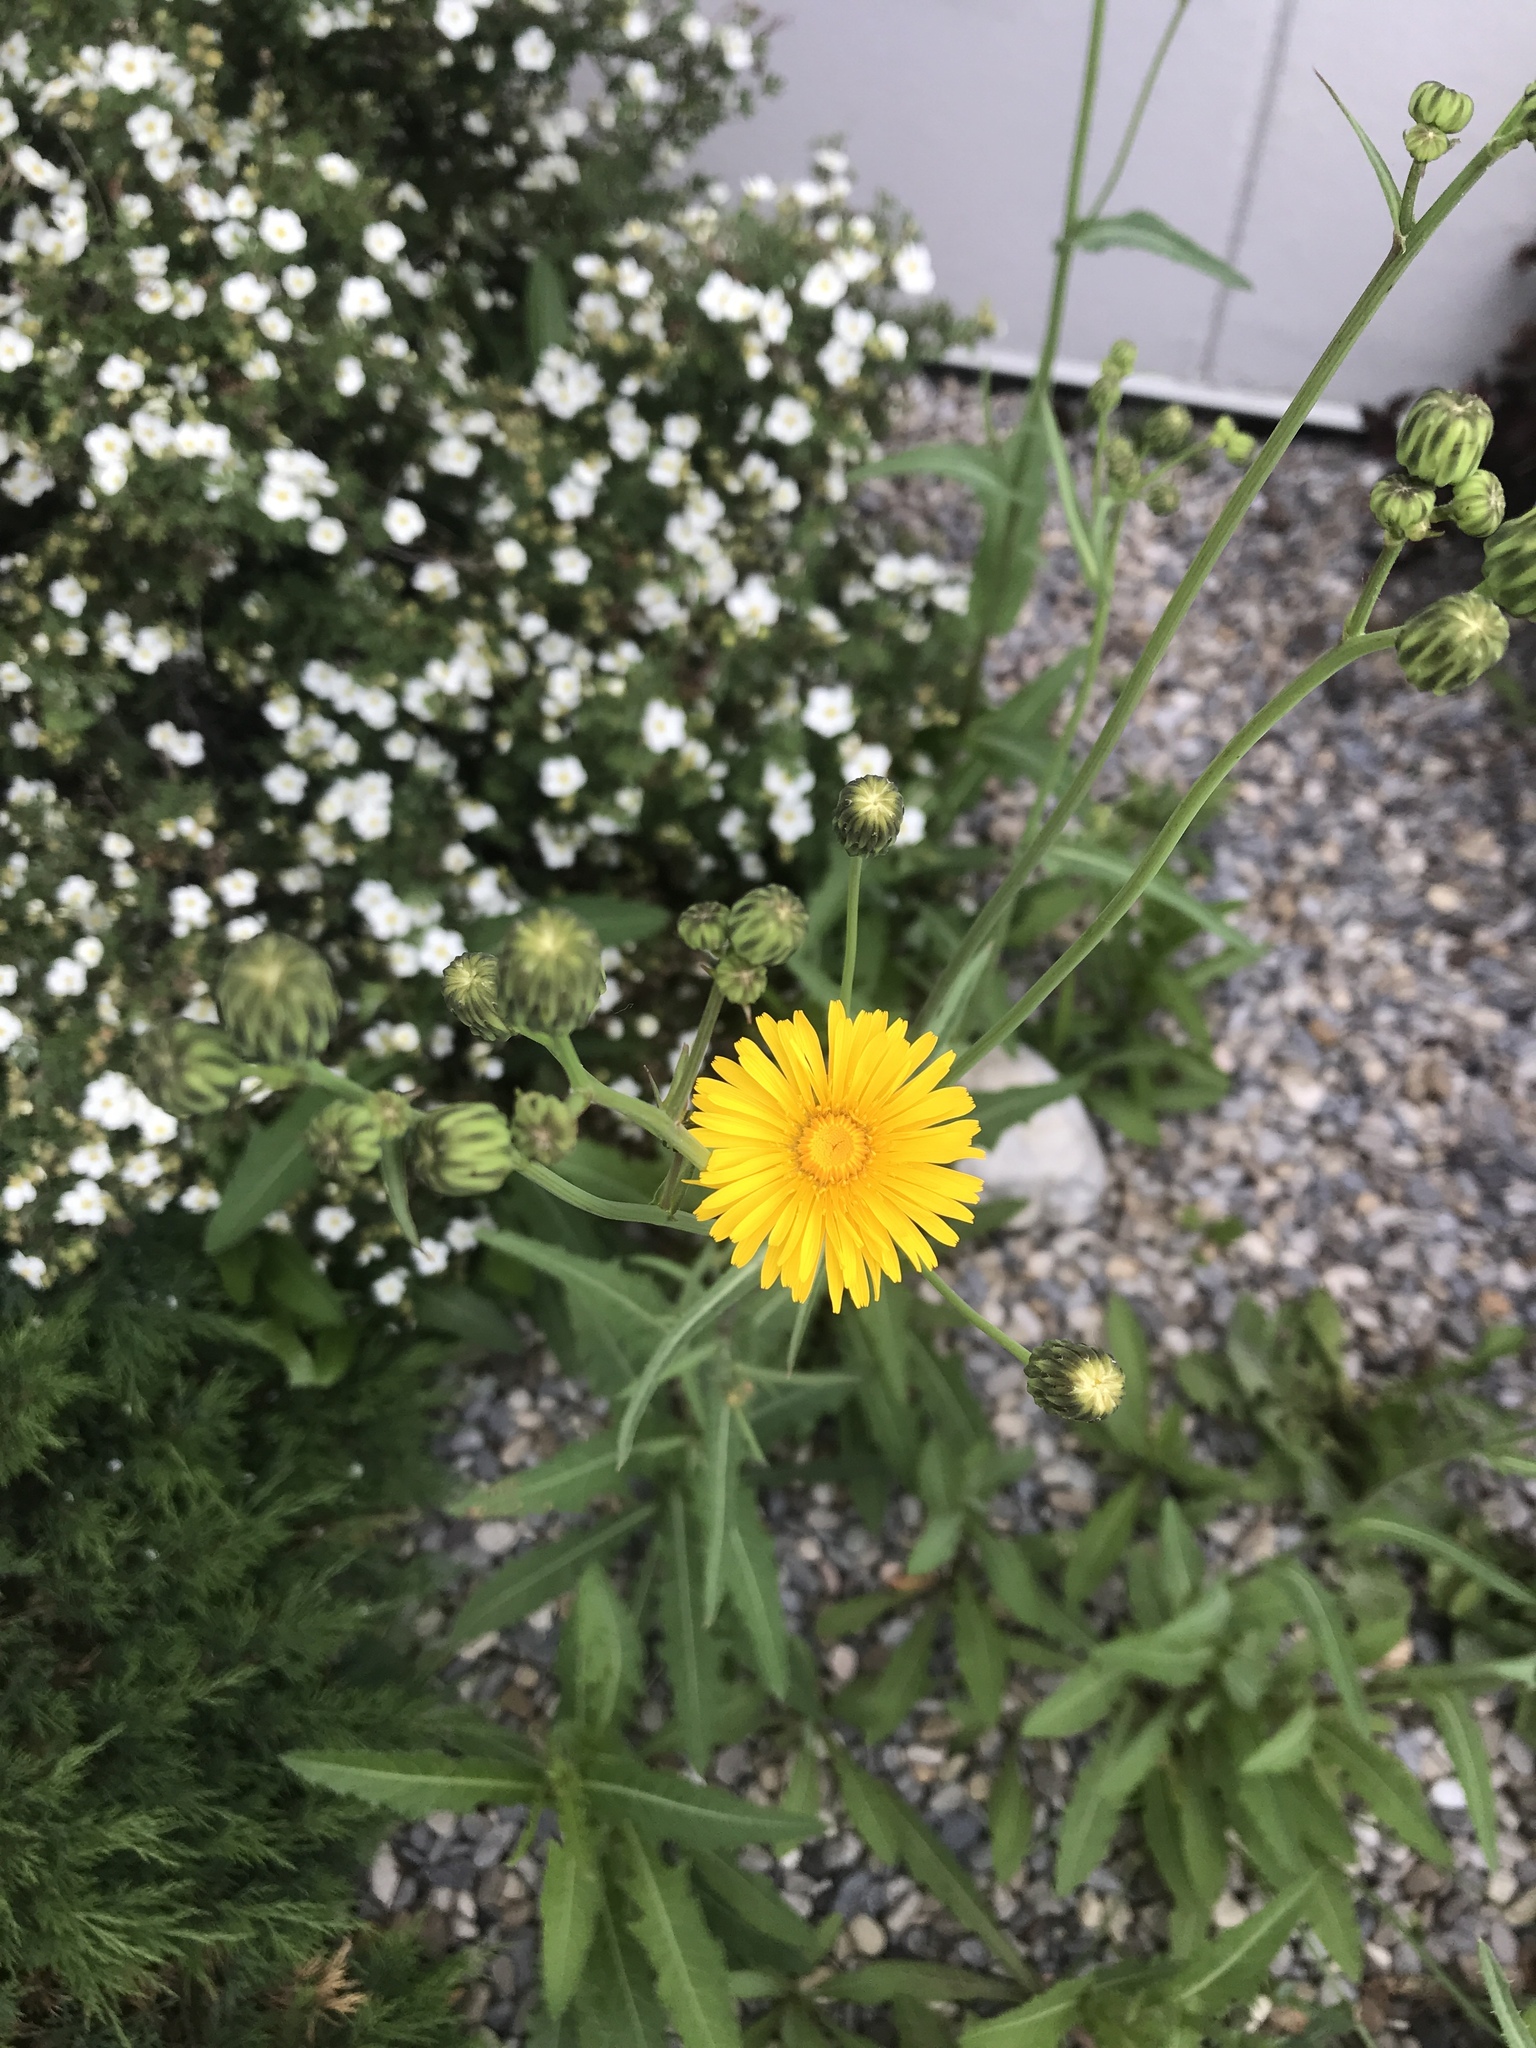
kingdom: Plantae
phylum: Tracheophyta
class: Magnoliopsida
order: Asterales
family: Asteraceae
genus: Sonchus
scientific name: Sonchus arvensis
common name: Perennial sow-thistle
